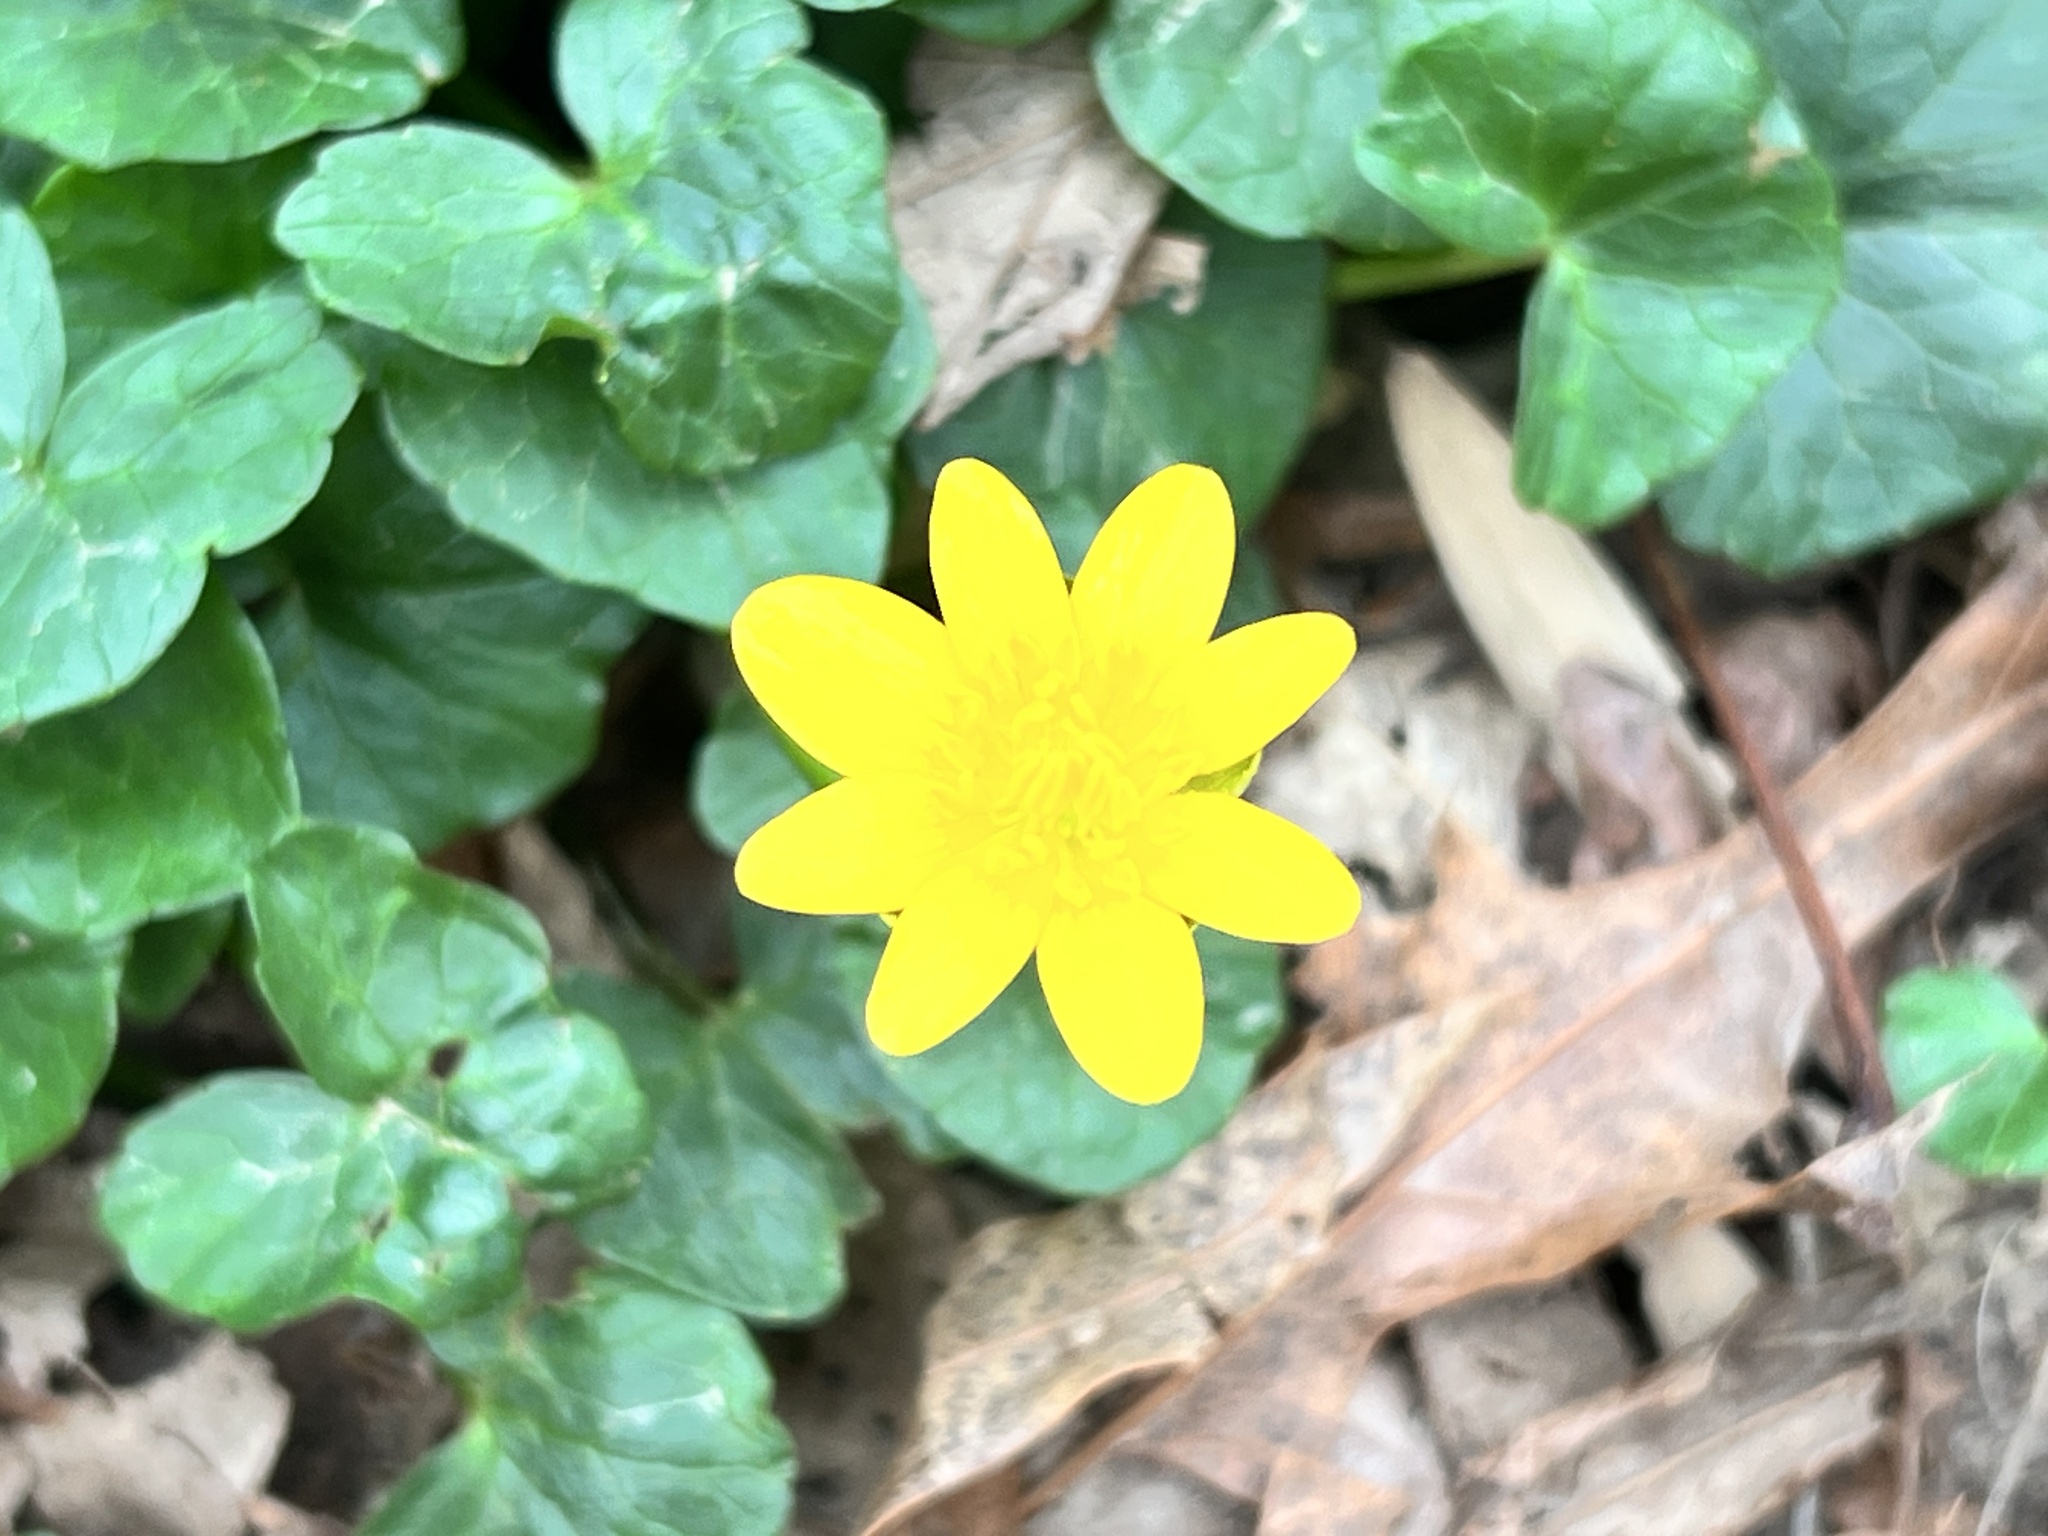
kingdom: Plantae
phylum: Tracheophyta
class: Magnoliopsida
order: Ranunculales
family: Ranunculaceae
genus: Ficaria
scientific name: Ficaria verna
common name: Lesser celandine
